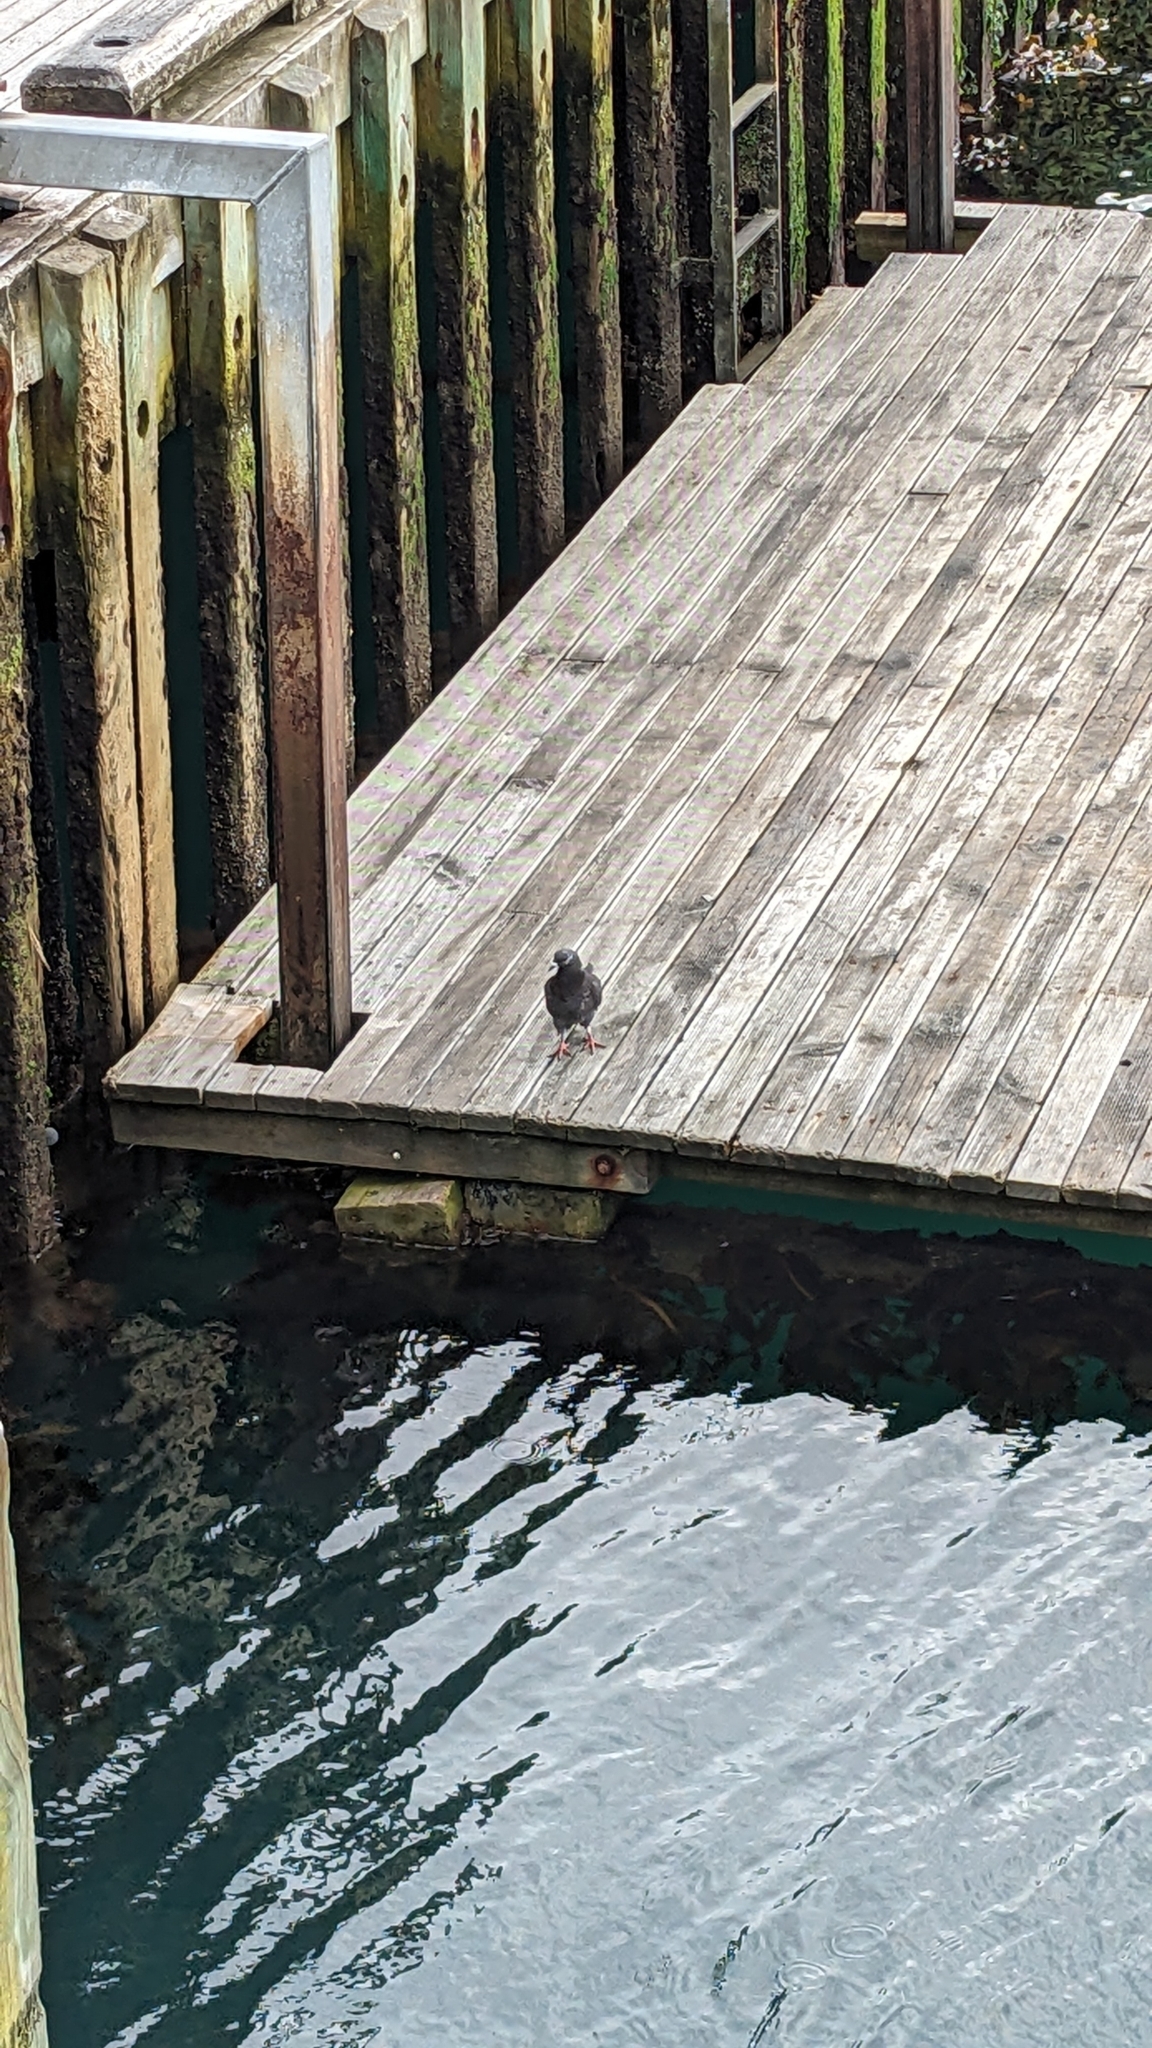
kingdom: Animalia
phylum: Chordata
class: Aves
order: Columbiformes
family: Columbidae
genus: Columba
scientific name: Columba livia
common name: Rock pigeon
